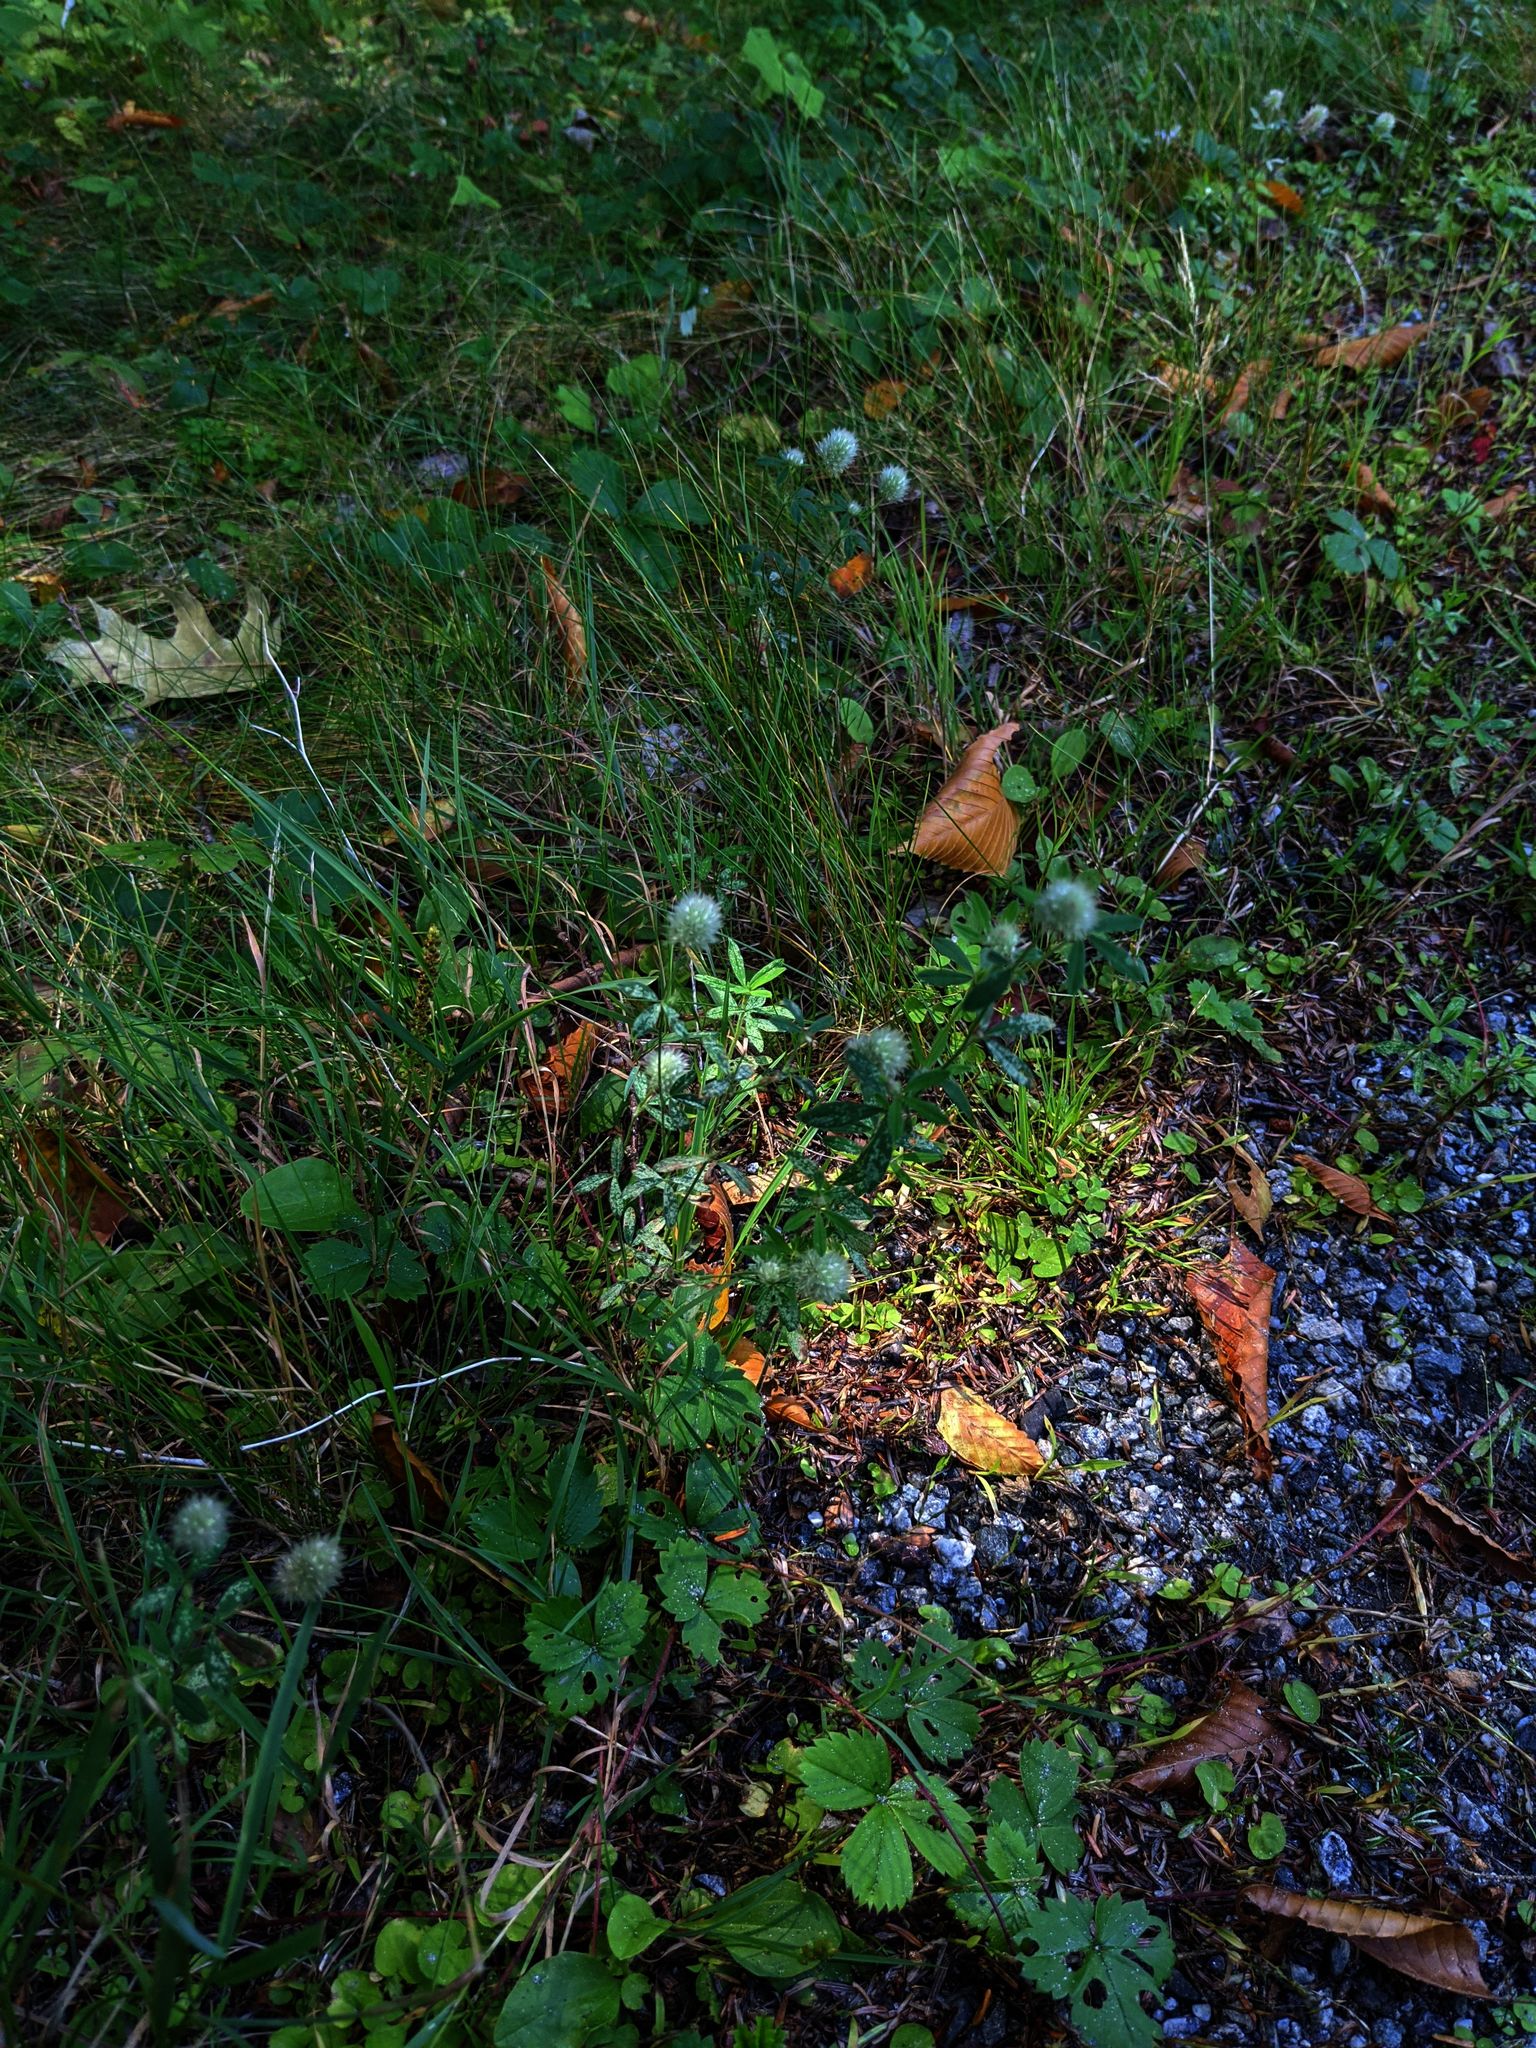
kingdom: Plantae
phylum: Tracheophyta
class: Magnoliopsida
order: Fabales
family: Fabaceae
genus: Trifolium
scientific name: Trifolium arvense
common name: Hare's-foot clover
